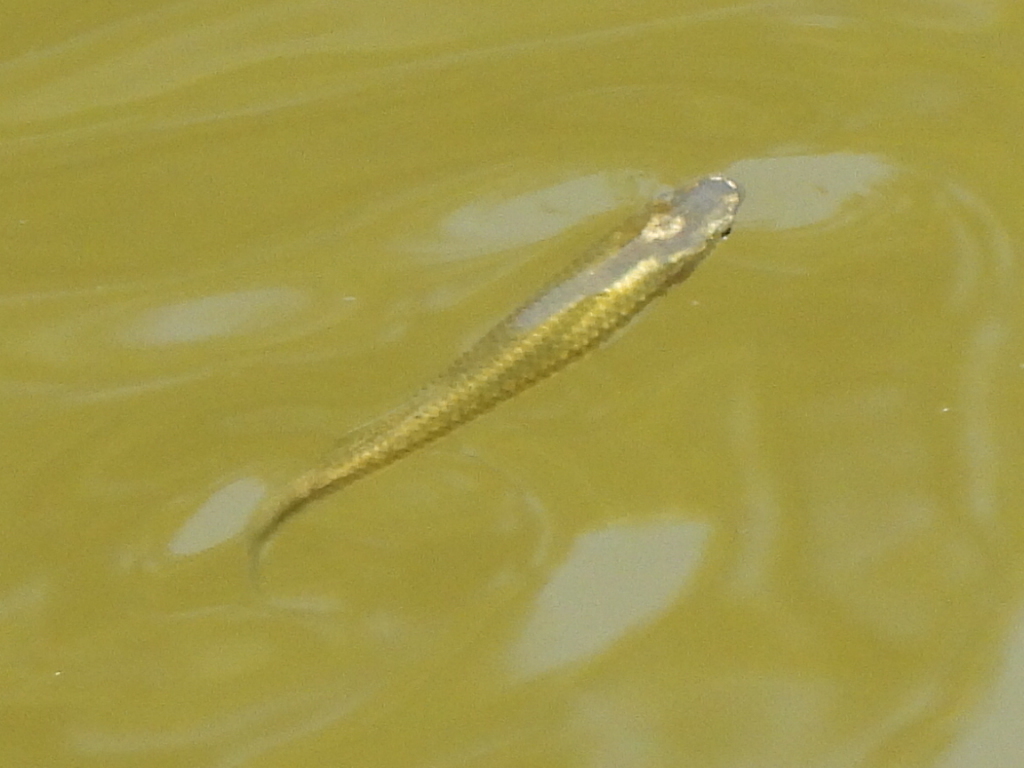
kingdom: Animalia
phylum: Chordata
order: Cyprinodontiformes
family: Fundulidae
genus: Fundulus
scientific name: Fundulus notatus
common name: Blackstripe topminnow
